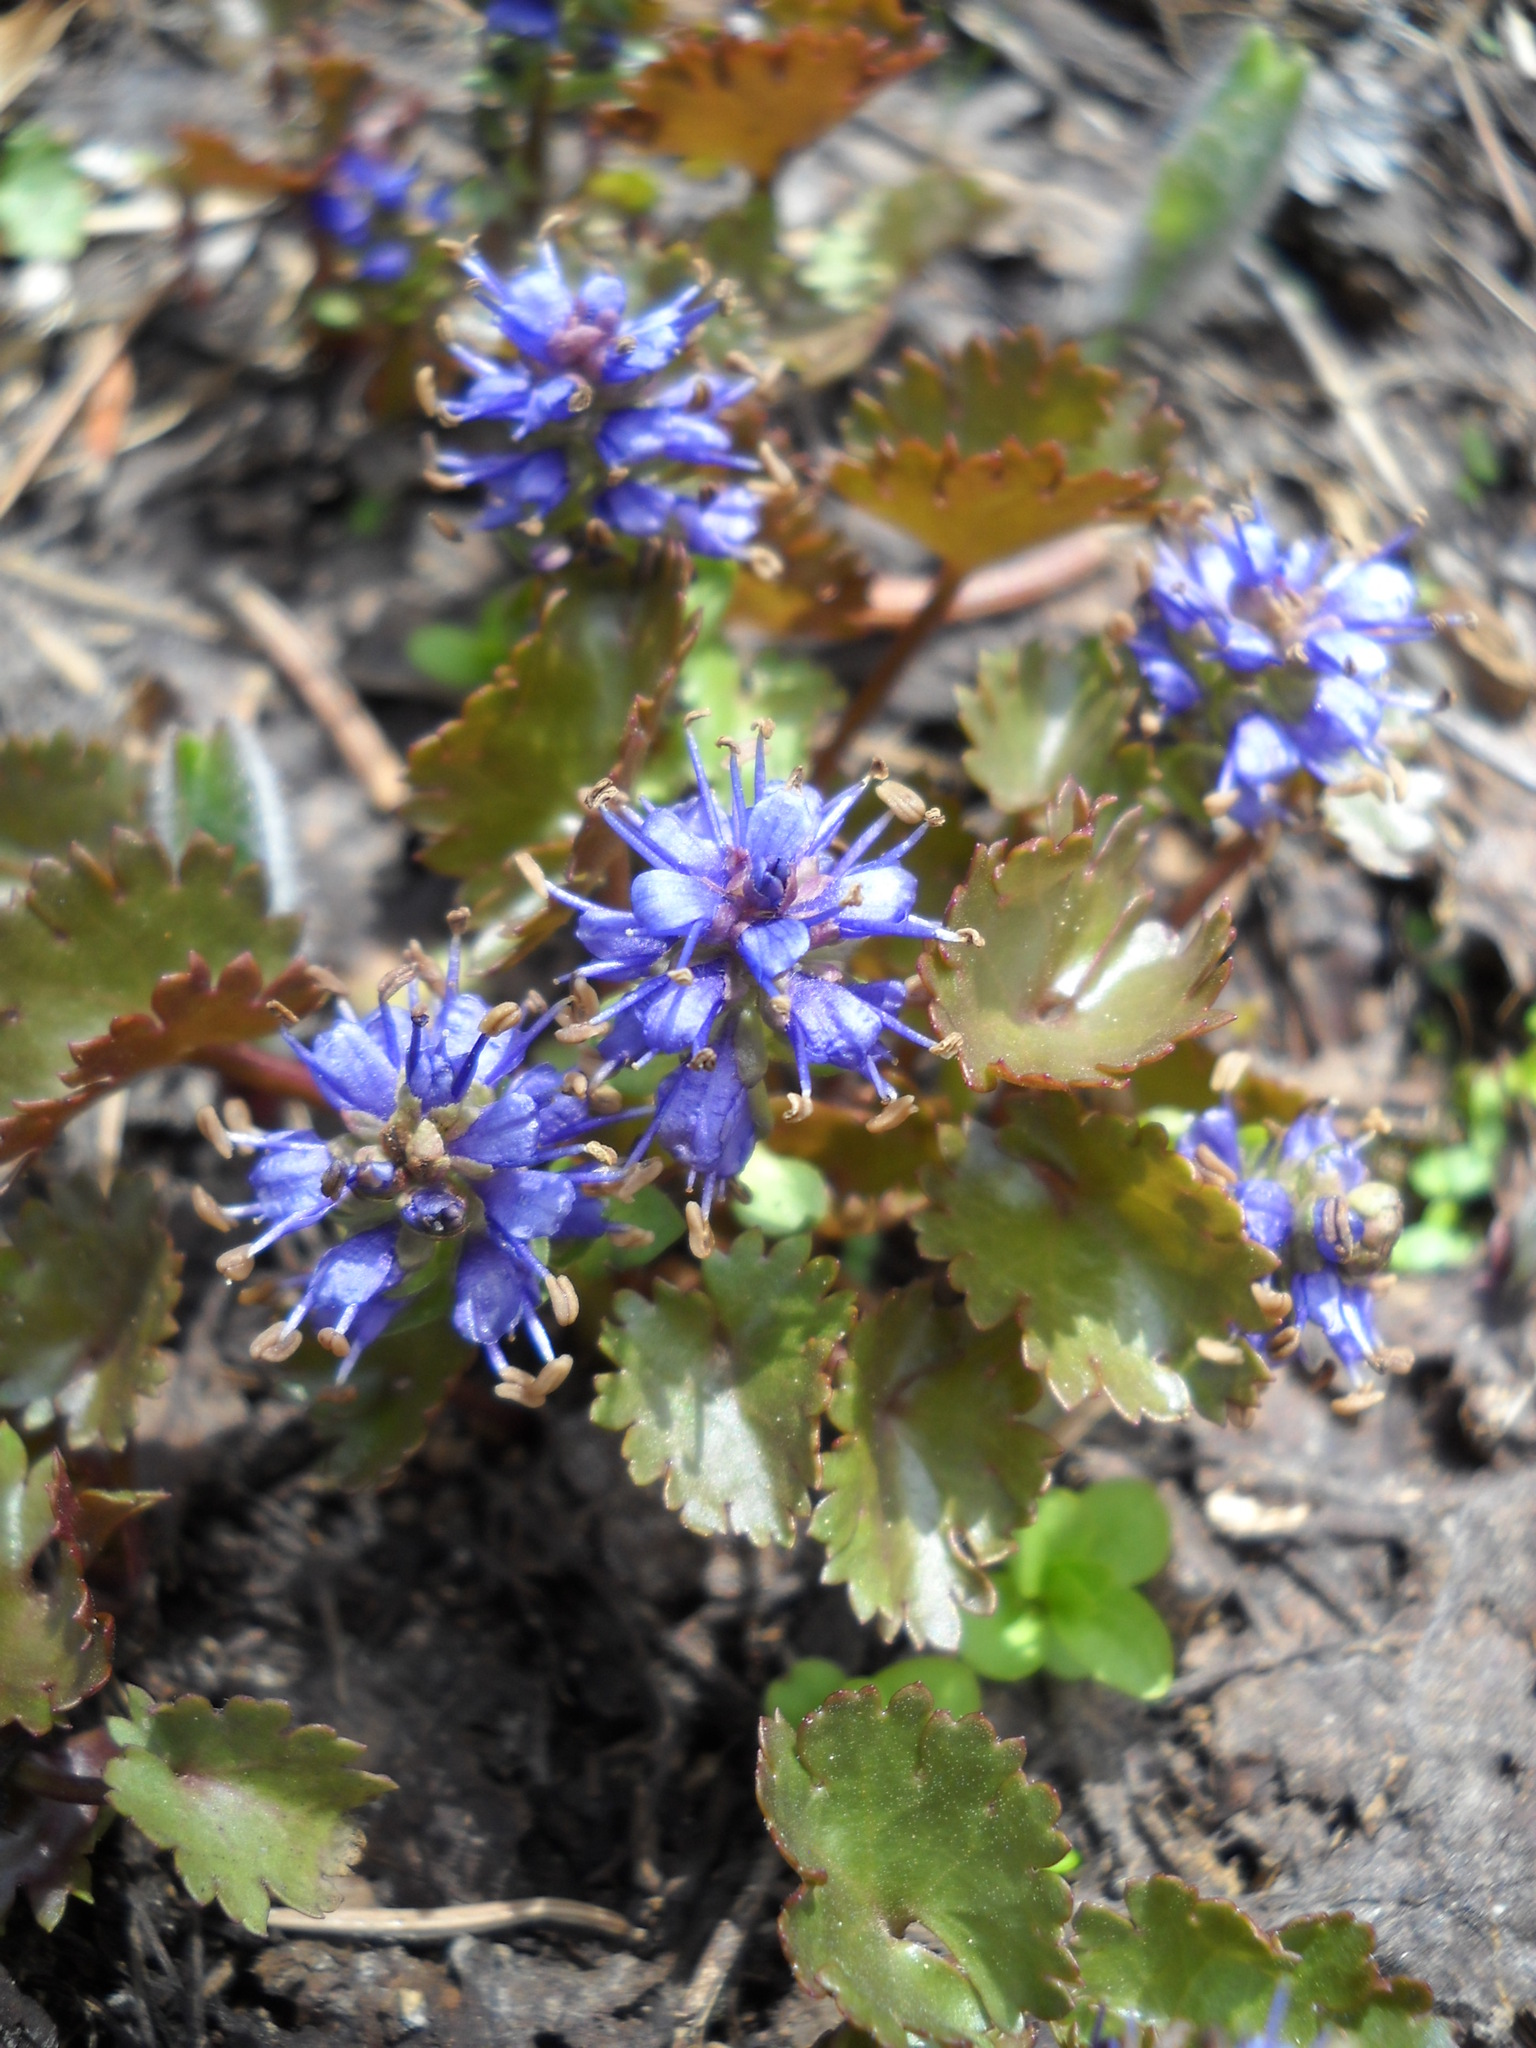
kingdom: Plantae
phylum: Tracheophyta
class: Magnoliopsida
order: Lamiales
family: Plantaginaceae
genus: Synthyris
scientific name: Synthyris laciniata
